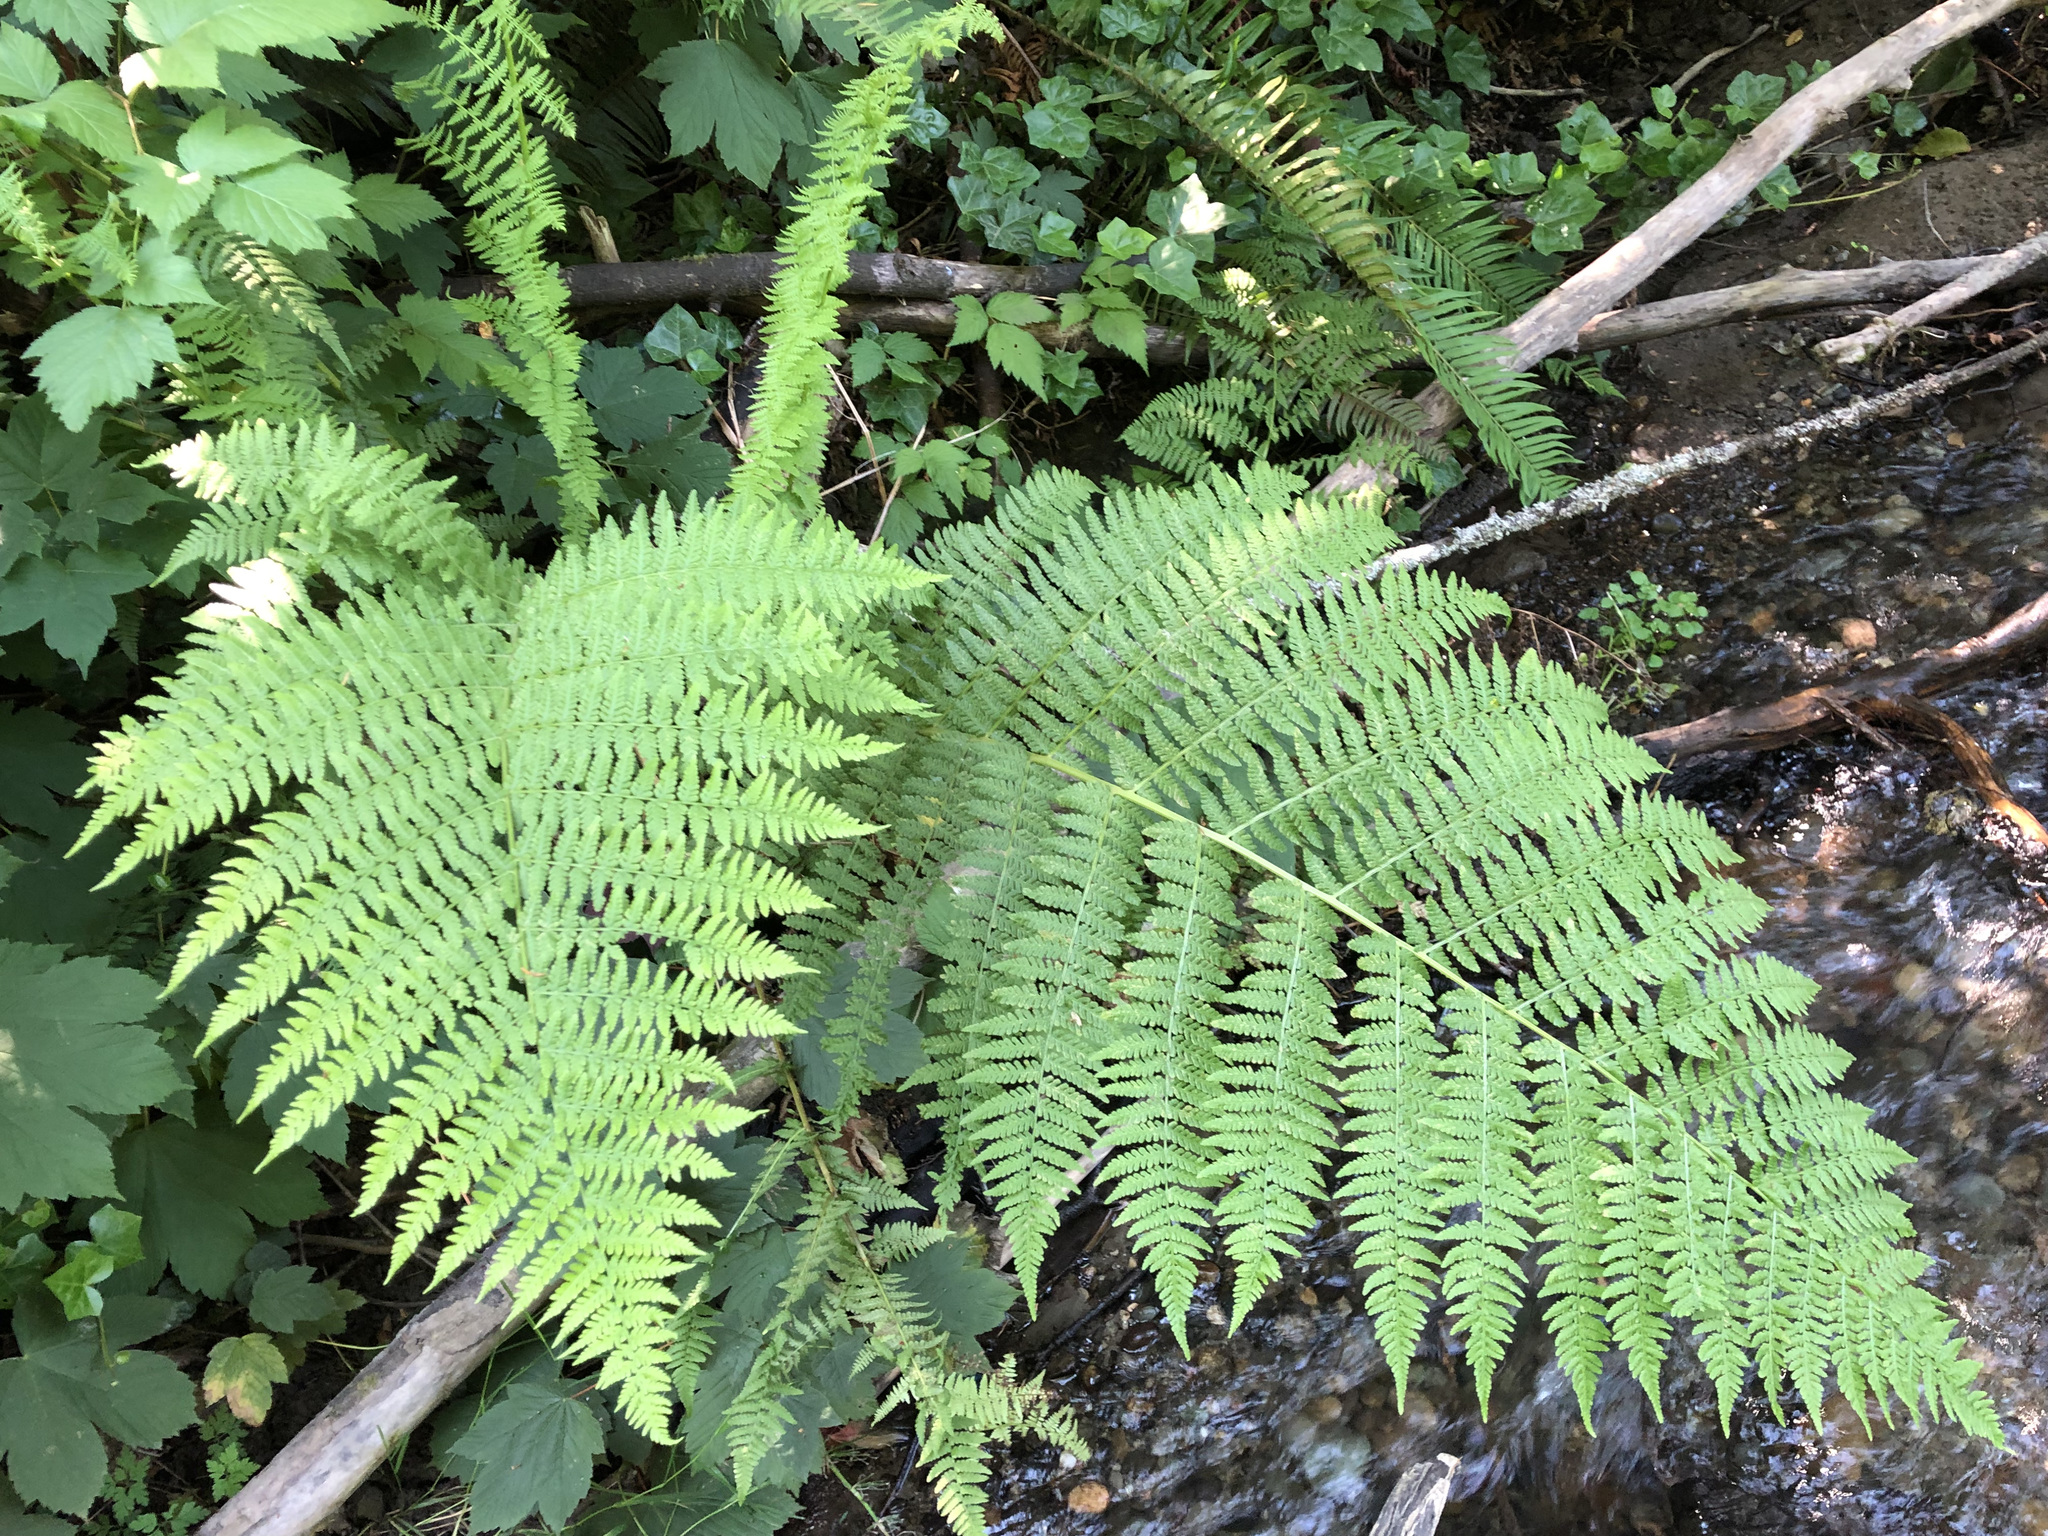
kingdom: Plantae
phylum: Tracheophyta
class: Polypodiopsida
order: Polypodiales
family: Athyriaceae
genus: Athyrium
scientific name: Athyrium filix-femina
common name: Lady fern
